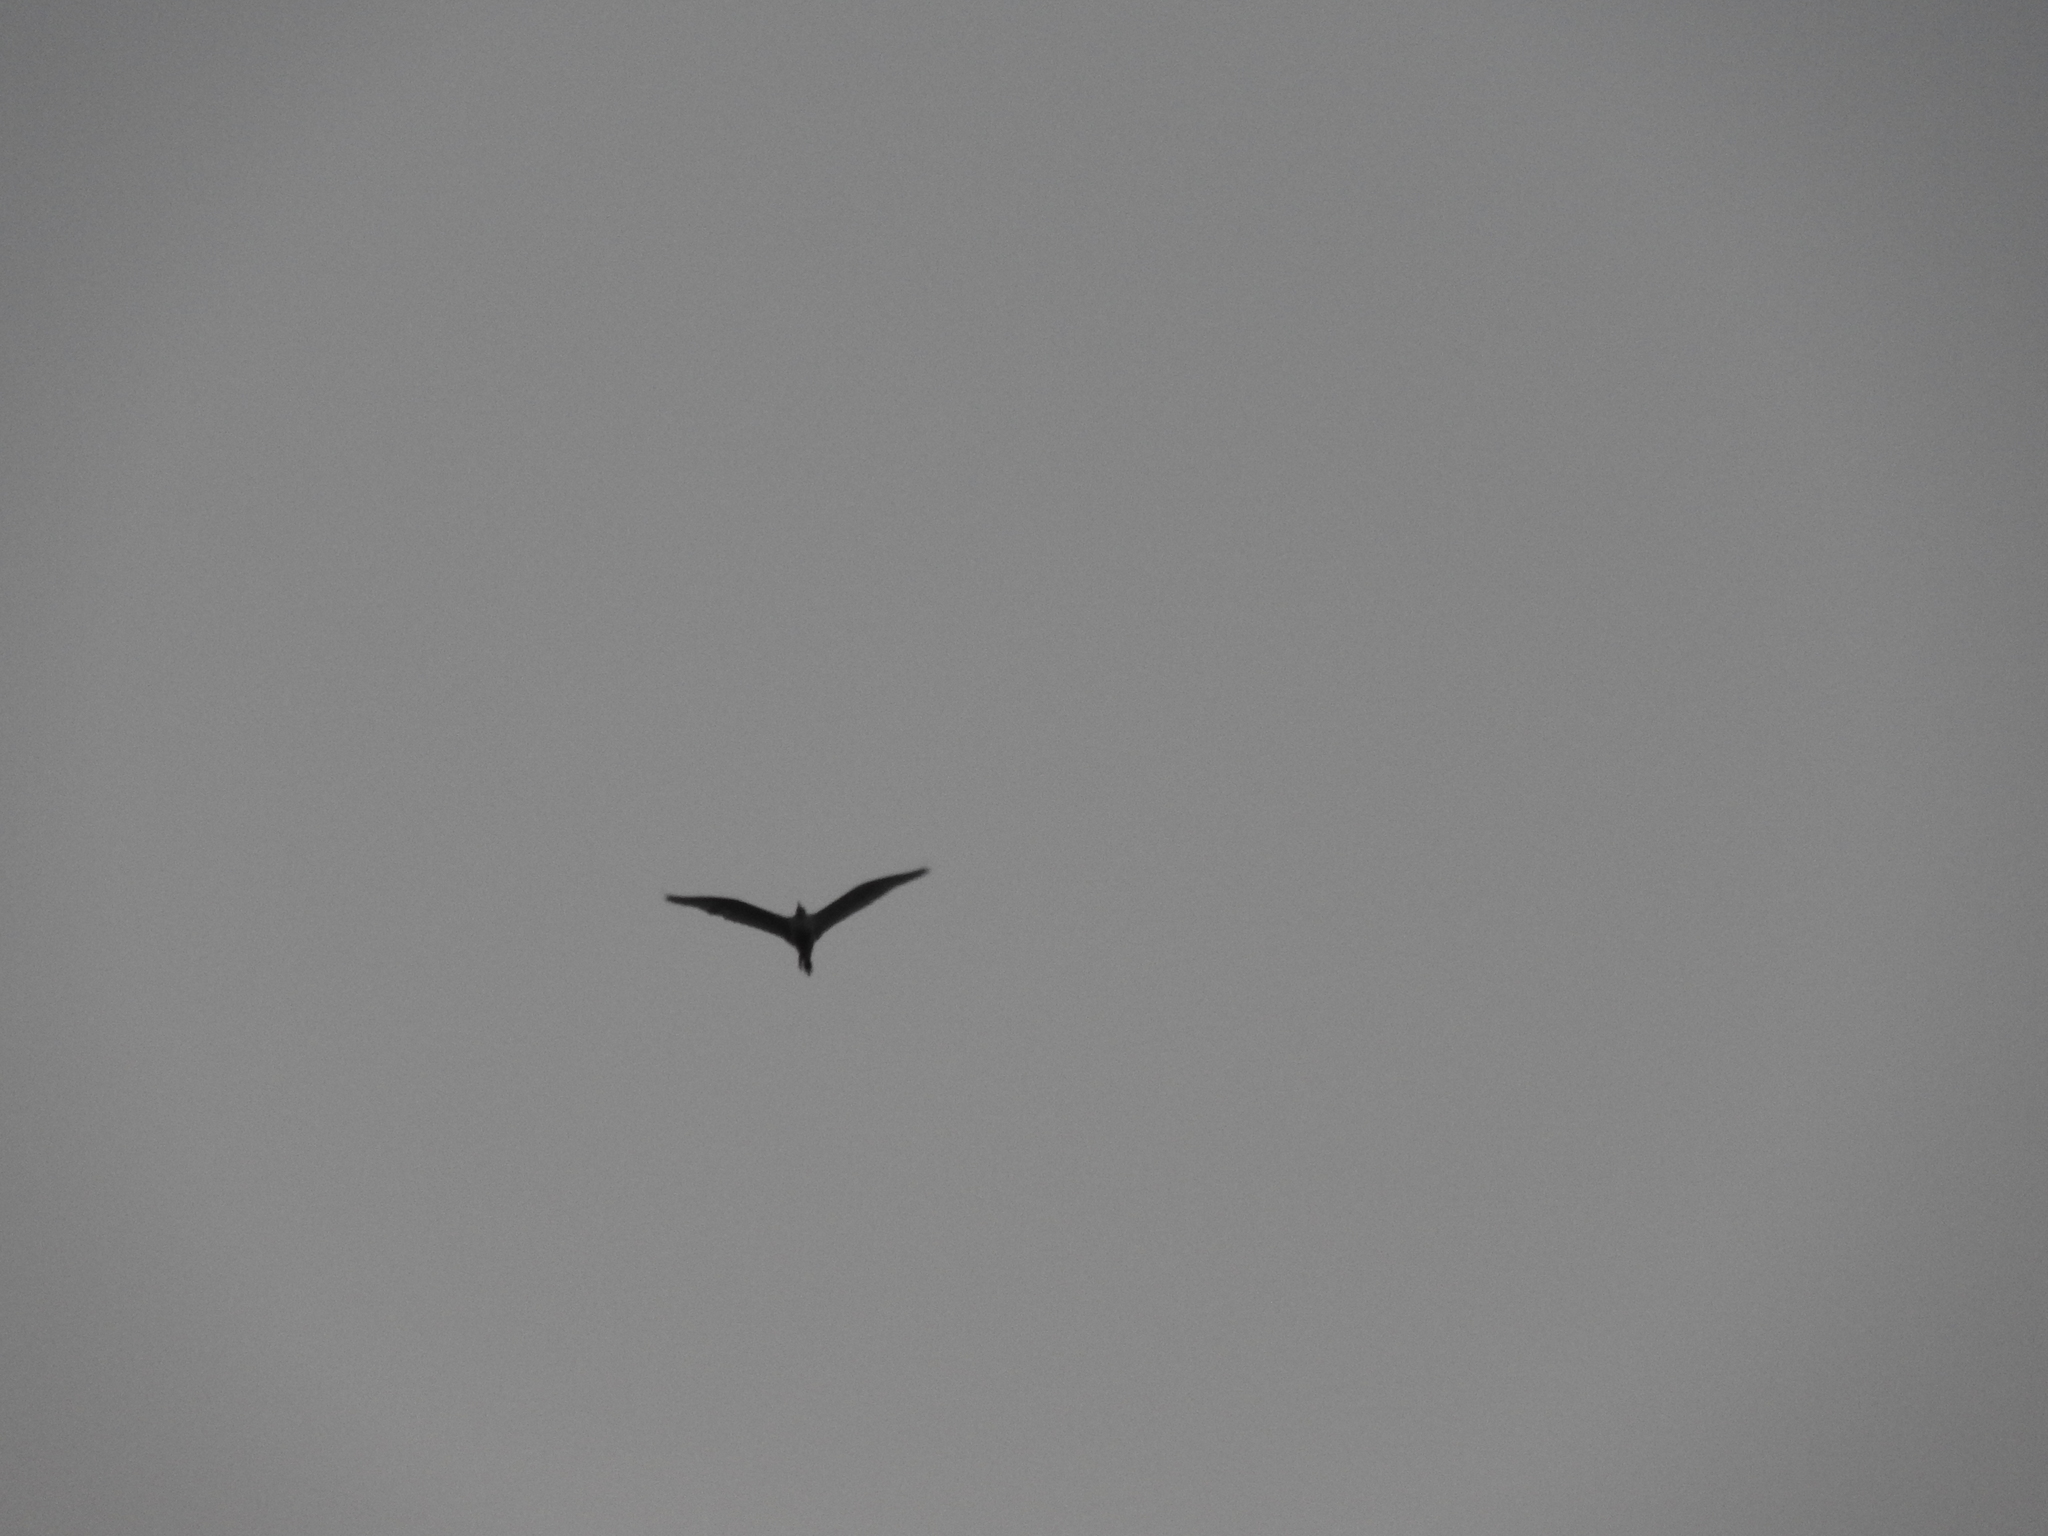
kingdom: Animalia
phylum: Chordata
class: Aves
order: Pelecaniformes
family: Ardeidae
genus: Bubulcus
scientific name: Bubulcus ibis
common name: Cattle egret
